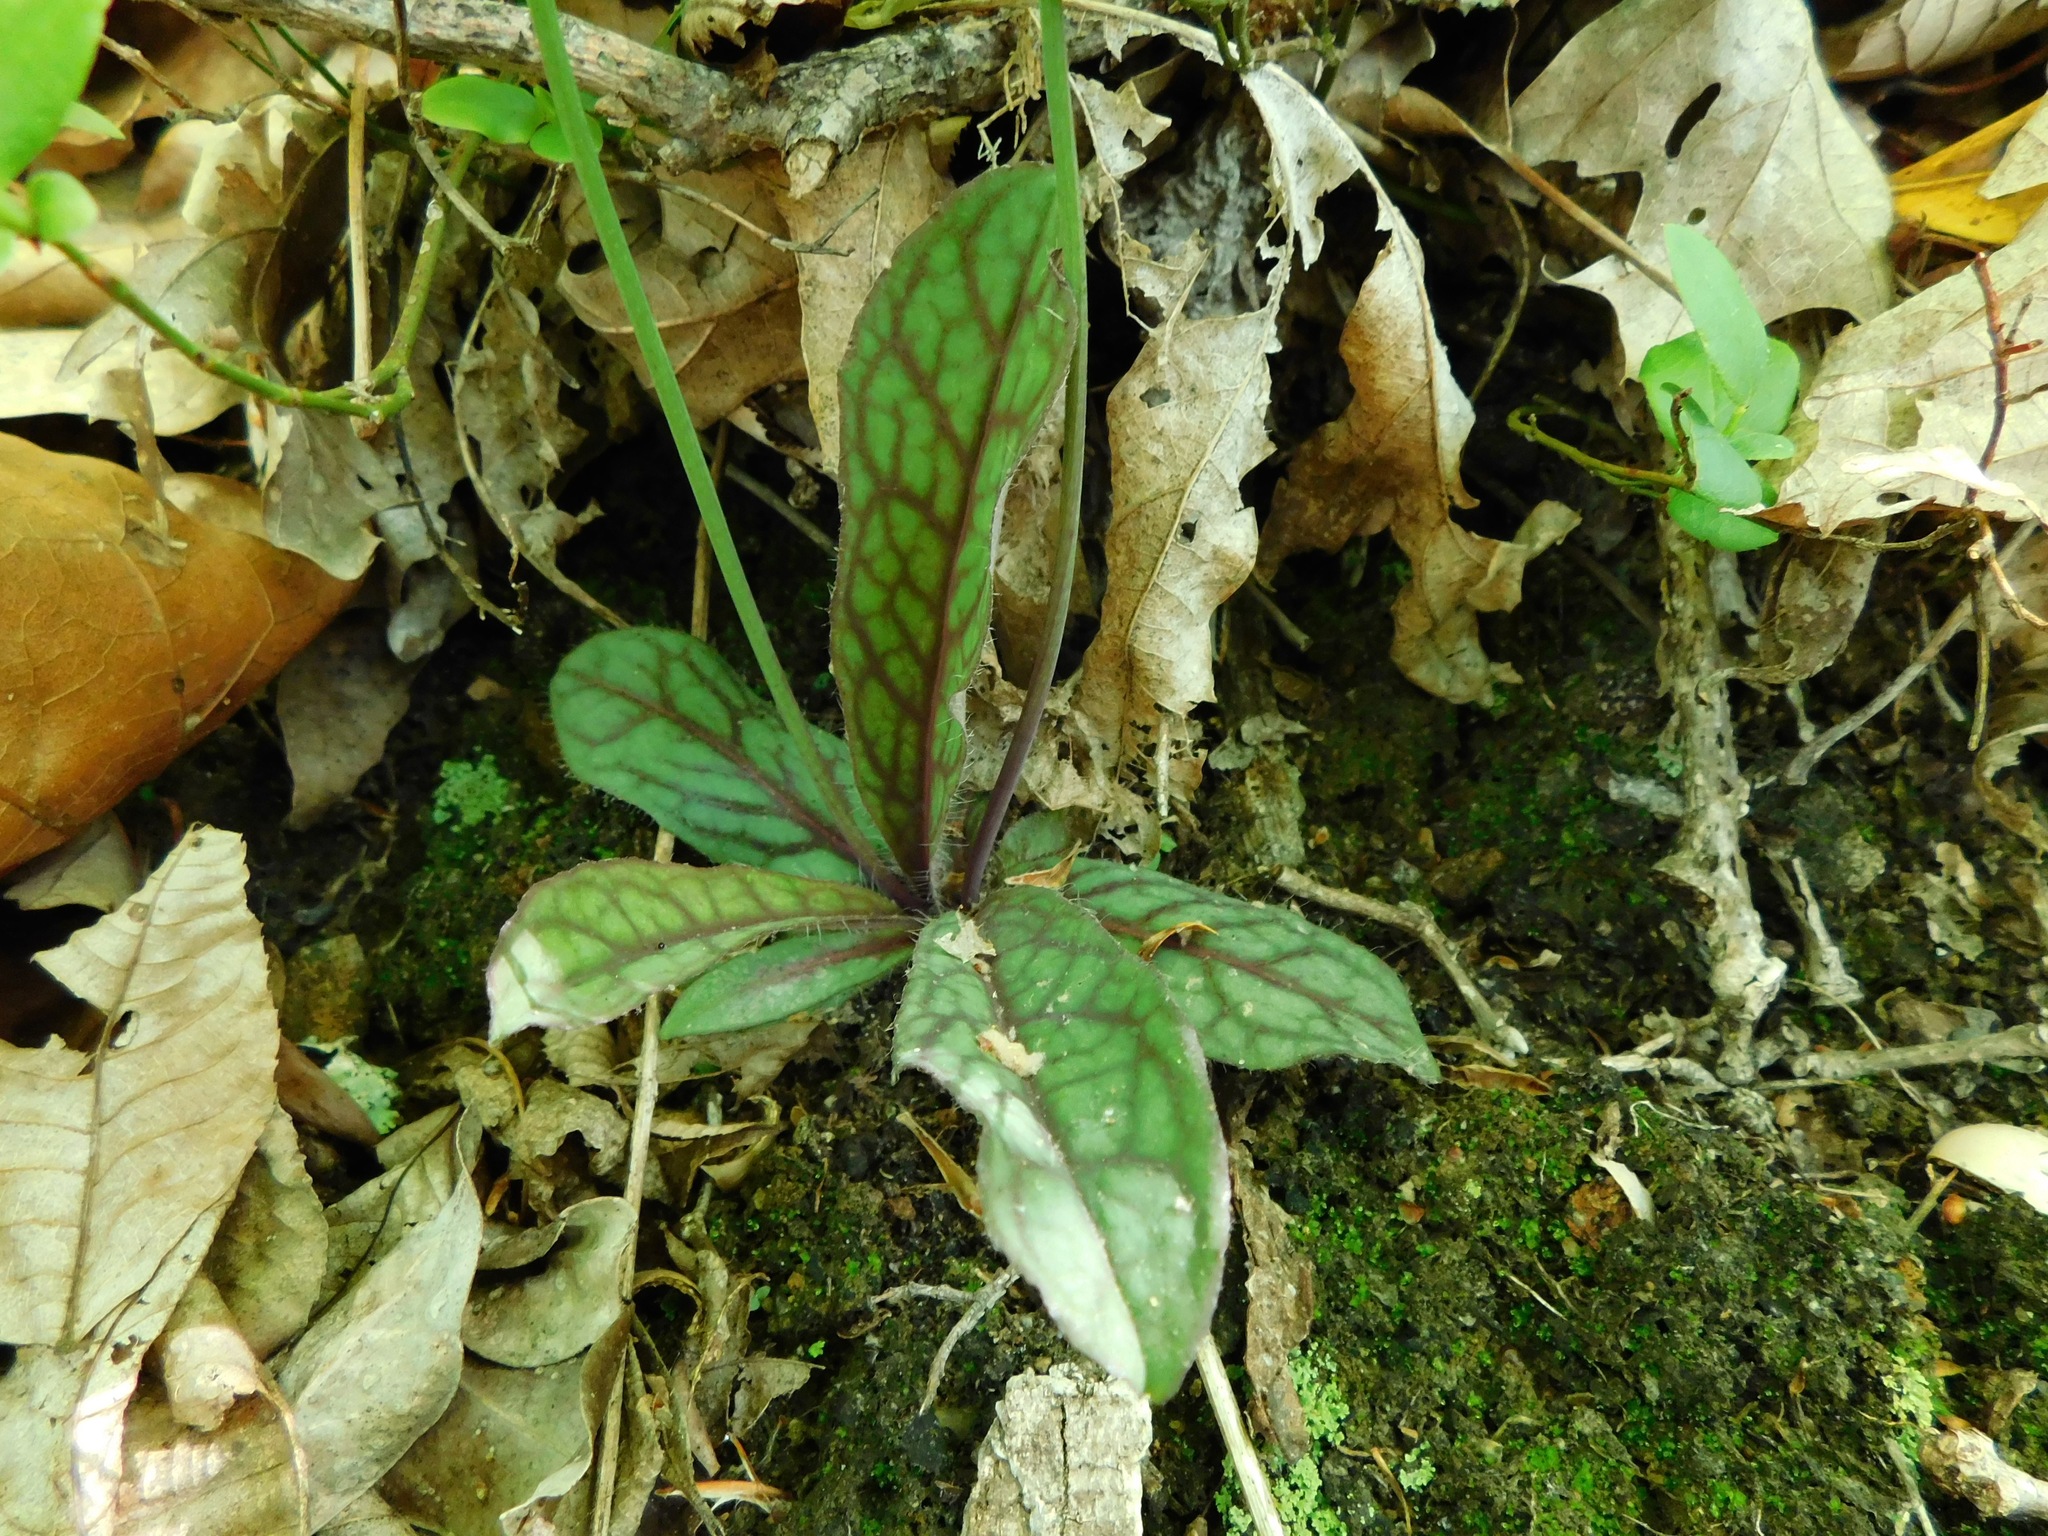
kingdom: Plantae
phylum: Tracheophyta
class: Magnoliopsida
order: Asterales
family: Asteraceae
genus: Hieracium
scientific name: Hieracium venosum
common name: Rattlesnake hawkweed
